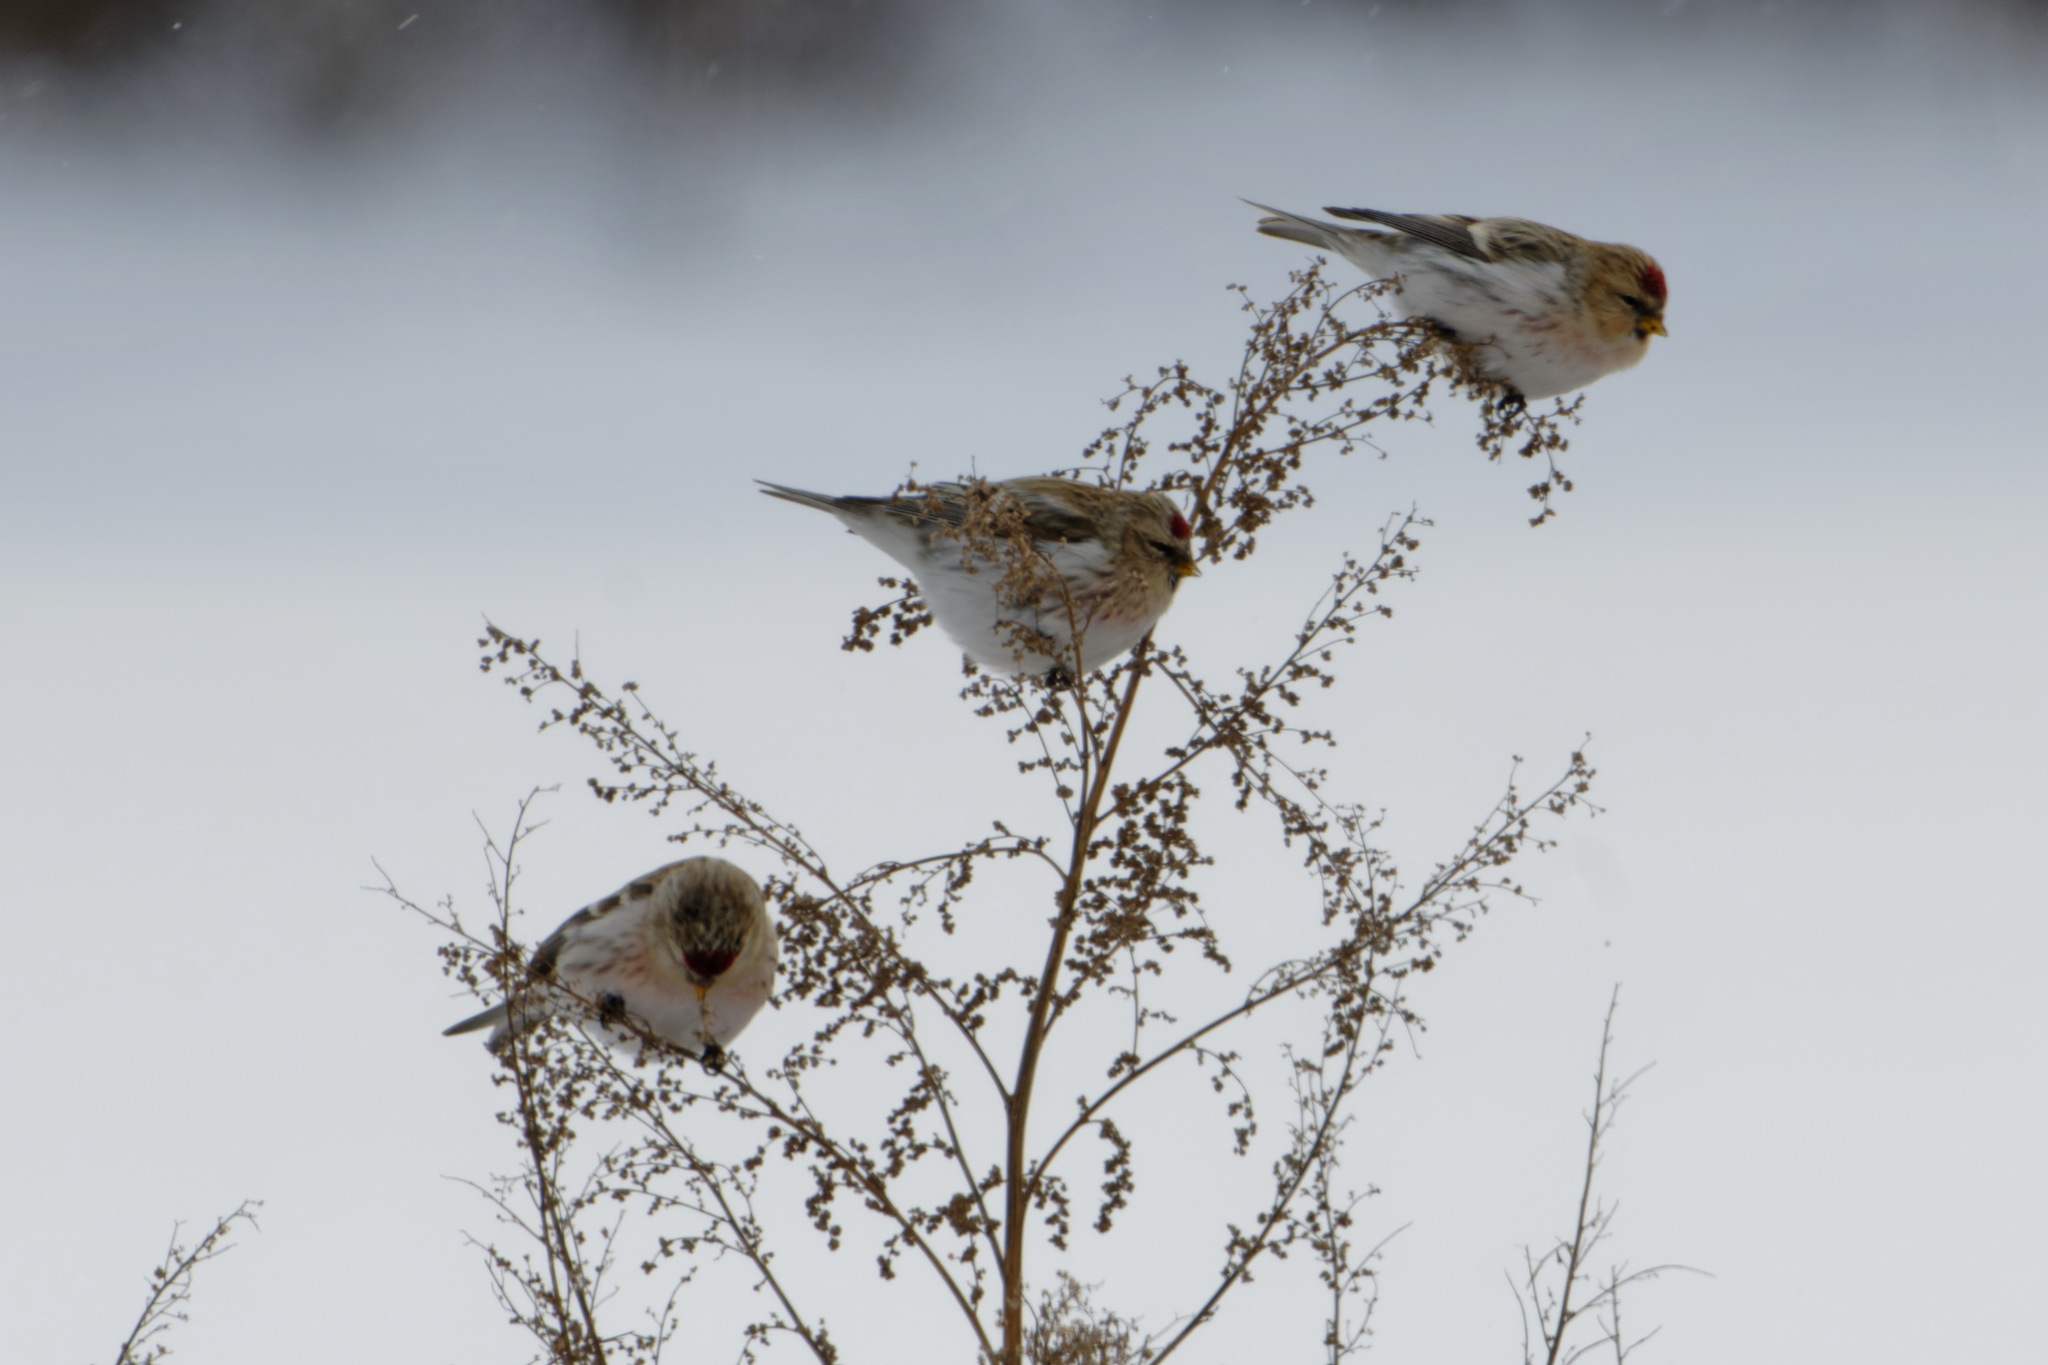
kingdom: Animalia
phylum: Chordata
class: Aves
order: Passeriformes
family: Fringillidae
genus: Acanthis
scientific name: Acanthis flammea
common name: Common redpoll
